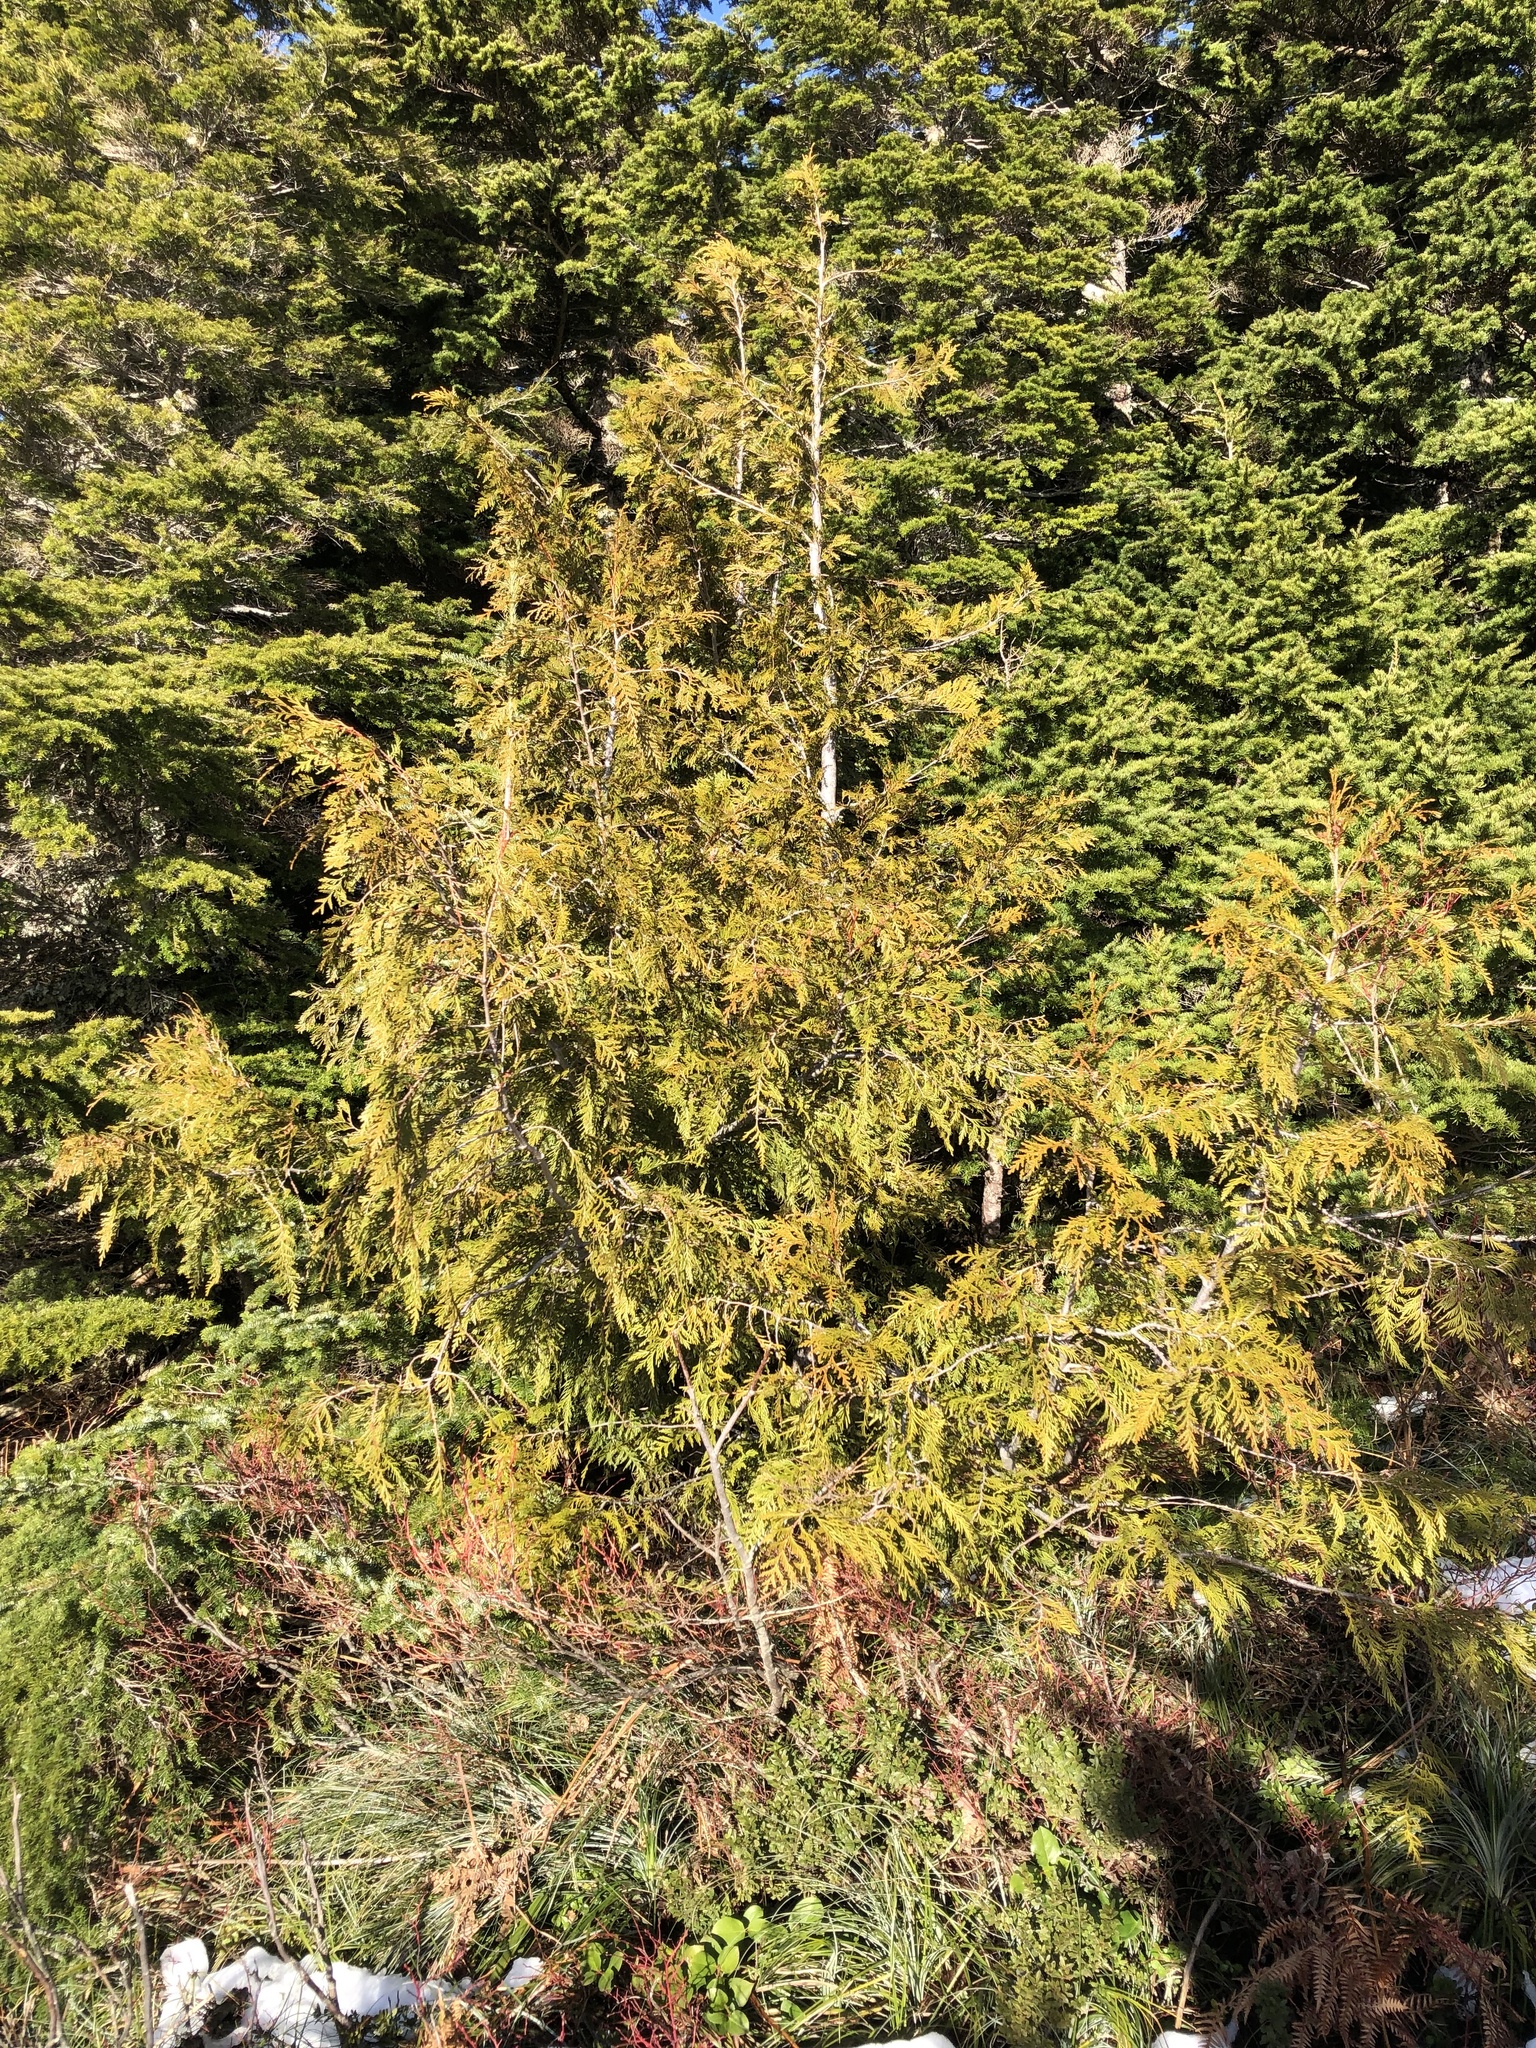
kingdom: Plantae
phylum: Tracheophyta
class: Pinopsida
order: Pinales
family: Cupressaceae
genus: Thuja
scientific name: Thuja plicata
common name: Western red-cedar
